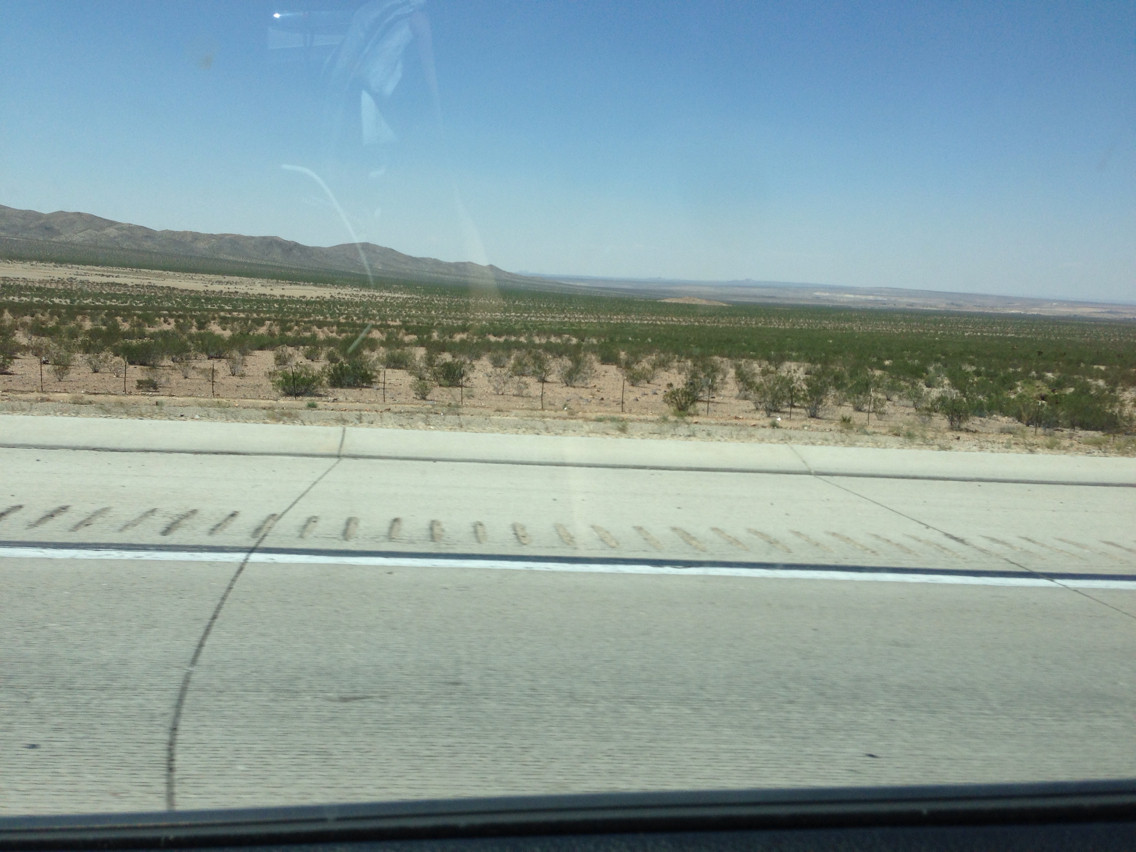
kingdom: Plantae
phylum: Tracheophyta
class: Magnoliopsida
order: Zygophyllales
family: Zygophyllaceae
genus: Larrea
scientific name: Larrea tridentata
